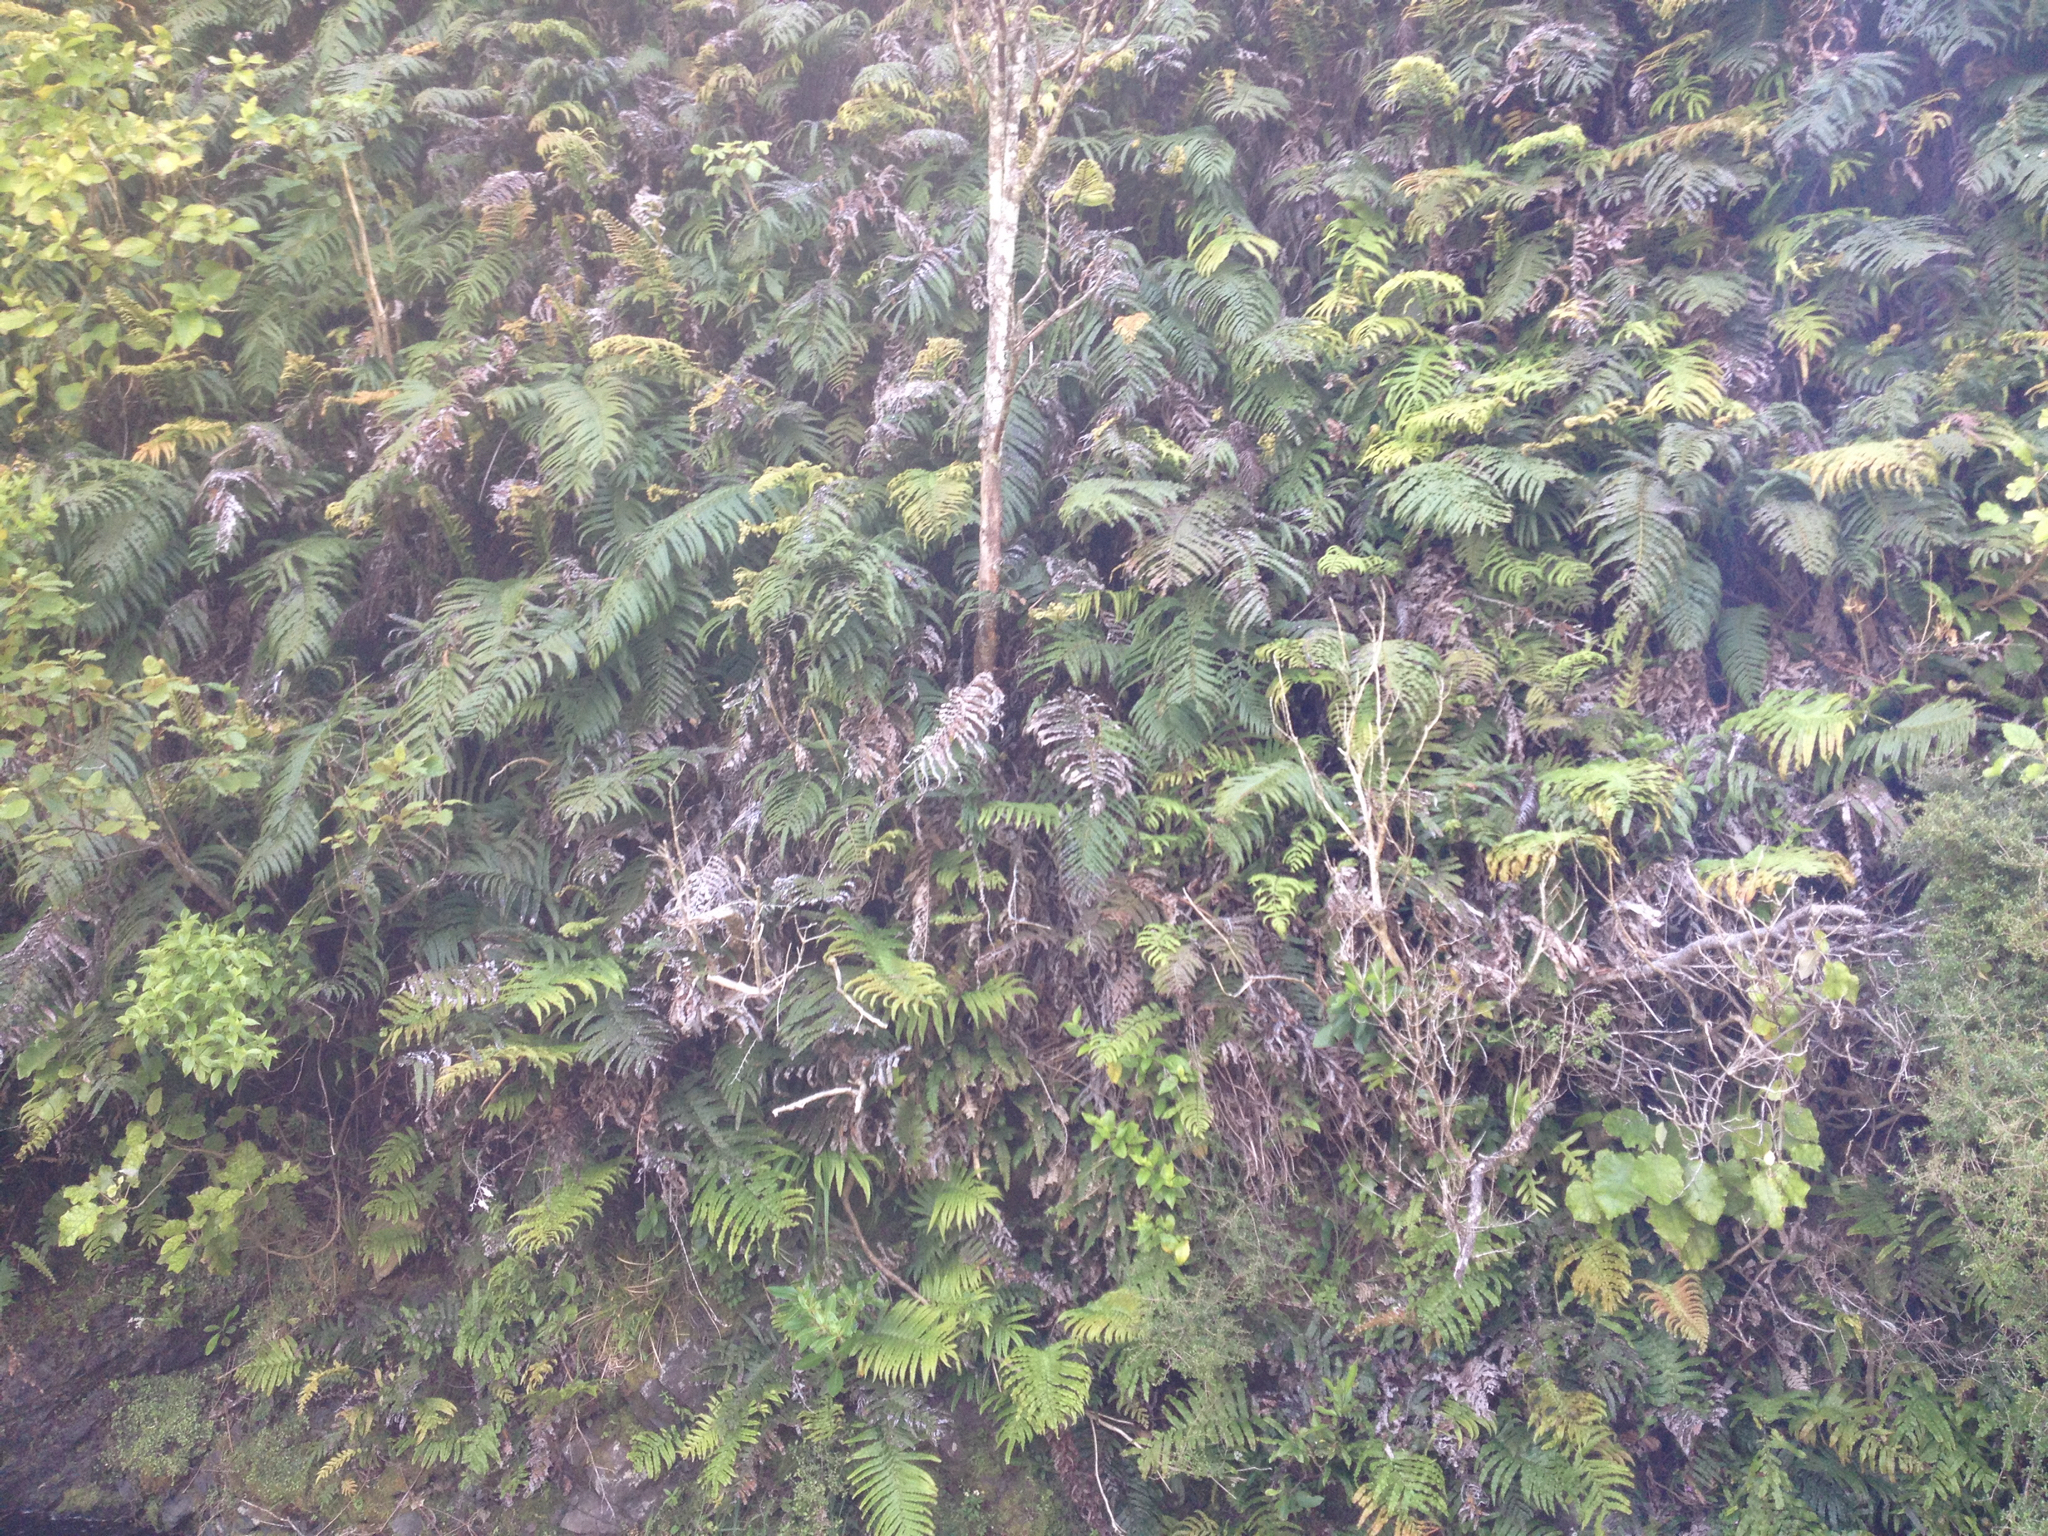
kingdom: Plantae
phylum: Tracheophyta
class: Polypodiopsida
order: Polypodiales
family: Blechnaceae
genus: Parablechnum
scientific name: Parablechnum novae-zelandiae
